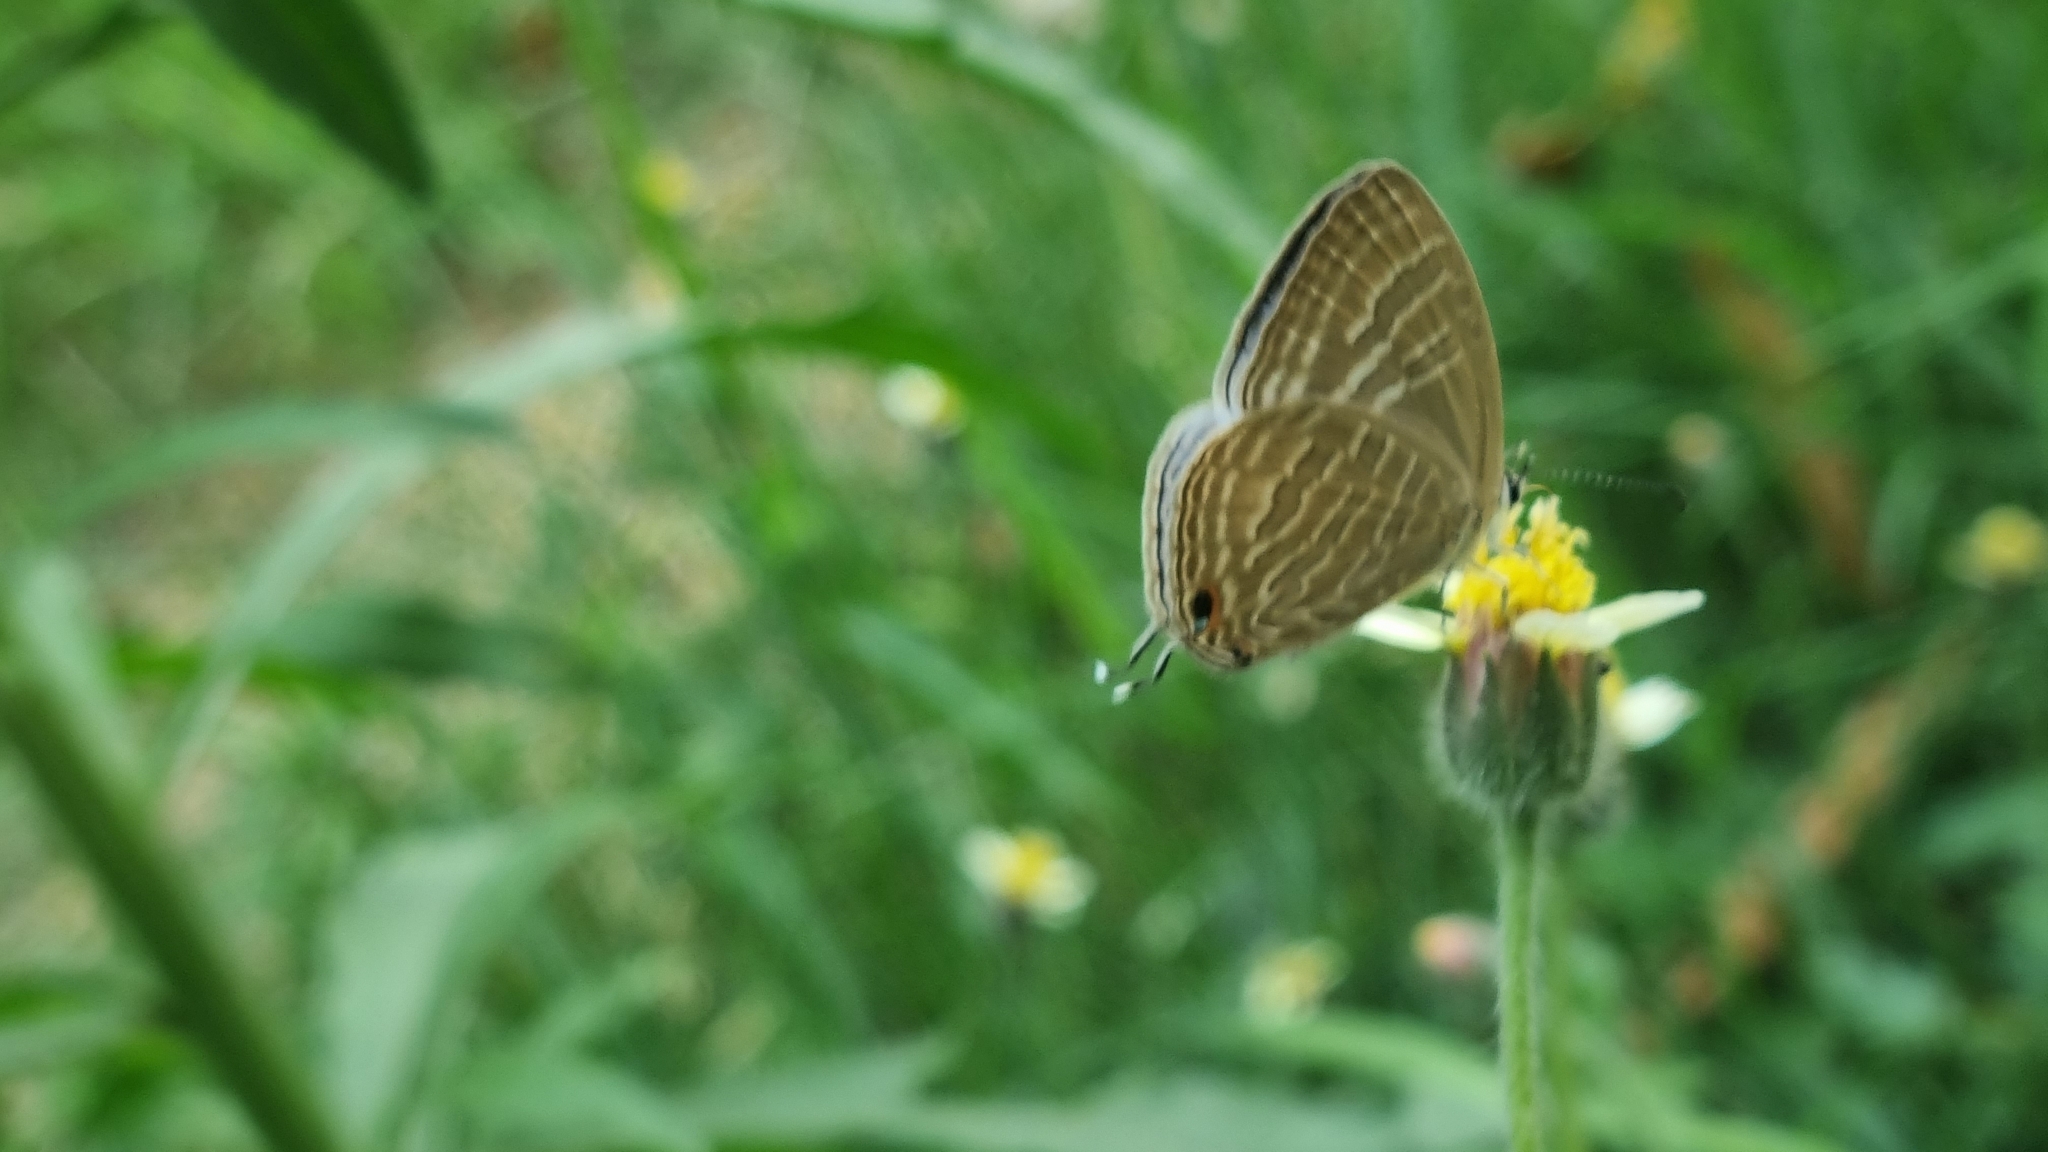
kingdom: Animalia
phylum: Arthropoda
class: Insecta
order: Lepidoptera
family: Lycaenidae
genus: Jamides
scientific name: Jamides celeno
